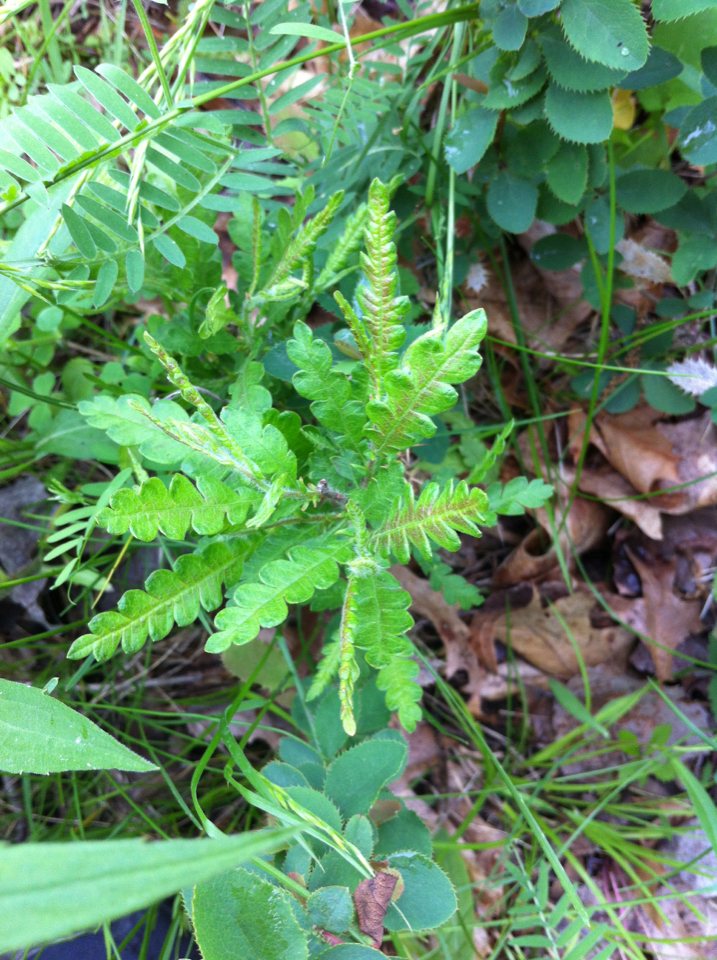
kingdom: Plantae
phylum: Tracheophyta
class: Magnoliopsida
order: Fagales
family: Myricaceae
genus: Comptonia
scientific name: Comptonia peregrina
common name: Sweet-fern
